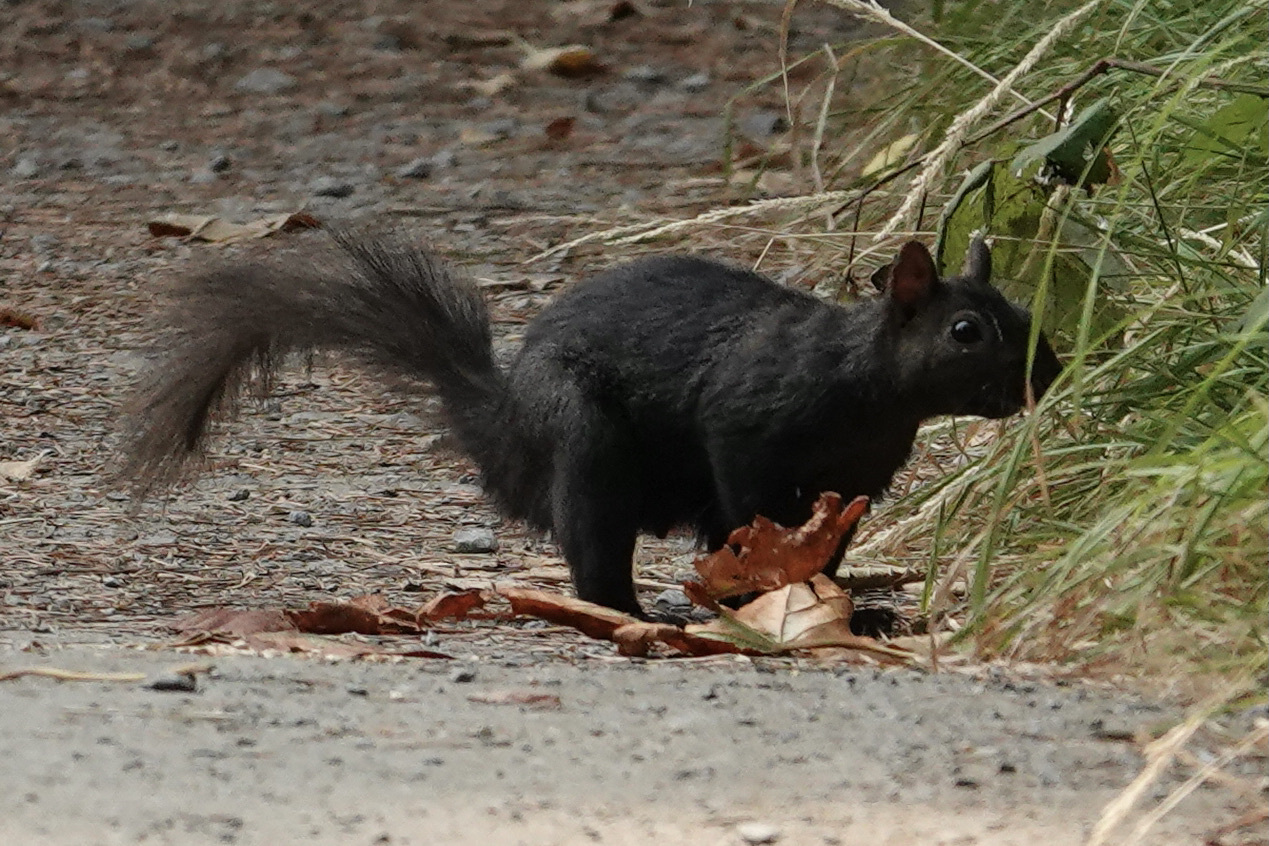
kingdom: Animalia
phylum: Chordata
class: Mammalia
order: Rodentia
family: Sciuridae
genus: Sciurus
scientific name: Sciurus carolinensis
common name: Eastern gray squirrel
